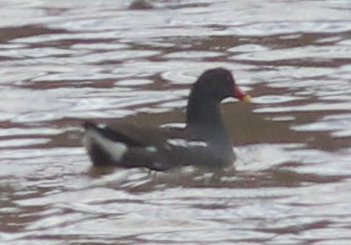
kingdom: Animalia
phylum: Chordata
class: Aves
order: Gruiformes
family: Rallidae
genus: Gallinula
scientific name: Gallinula chloropus
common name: Common moorhen
